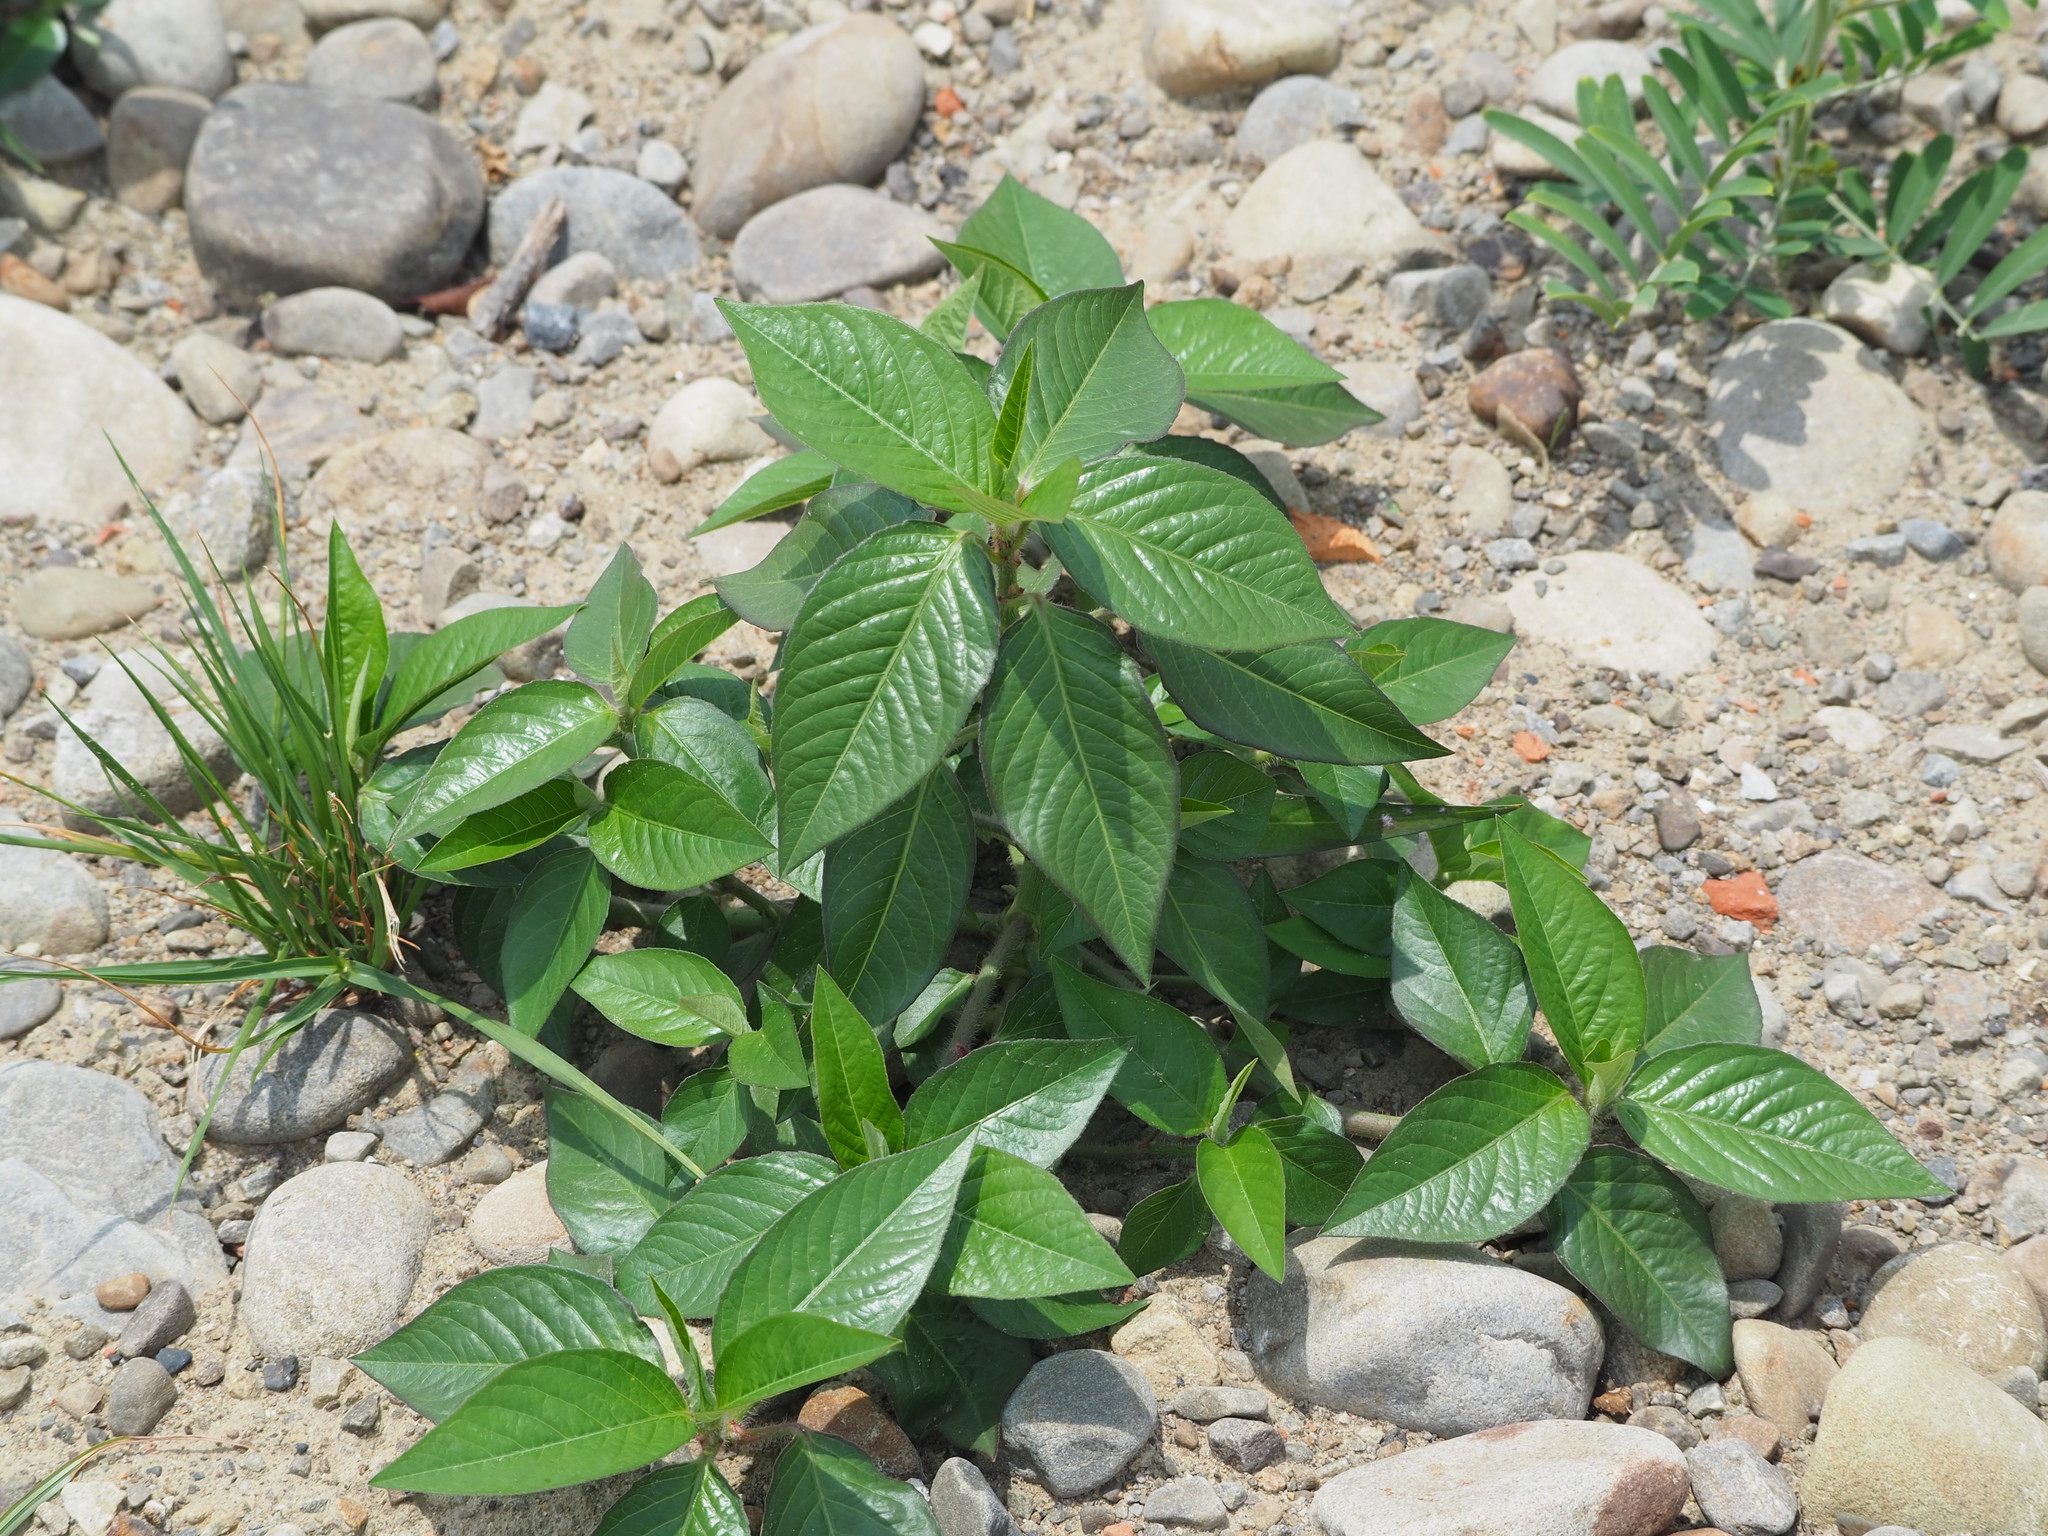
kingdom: Plantae
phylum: Tracheophyta
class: Magnoliopsida
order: Malpighiales
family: Euphorbiaceae
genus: Euphorbia
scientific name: Euphorbia heterophylla
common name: Mexican fireplant
